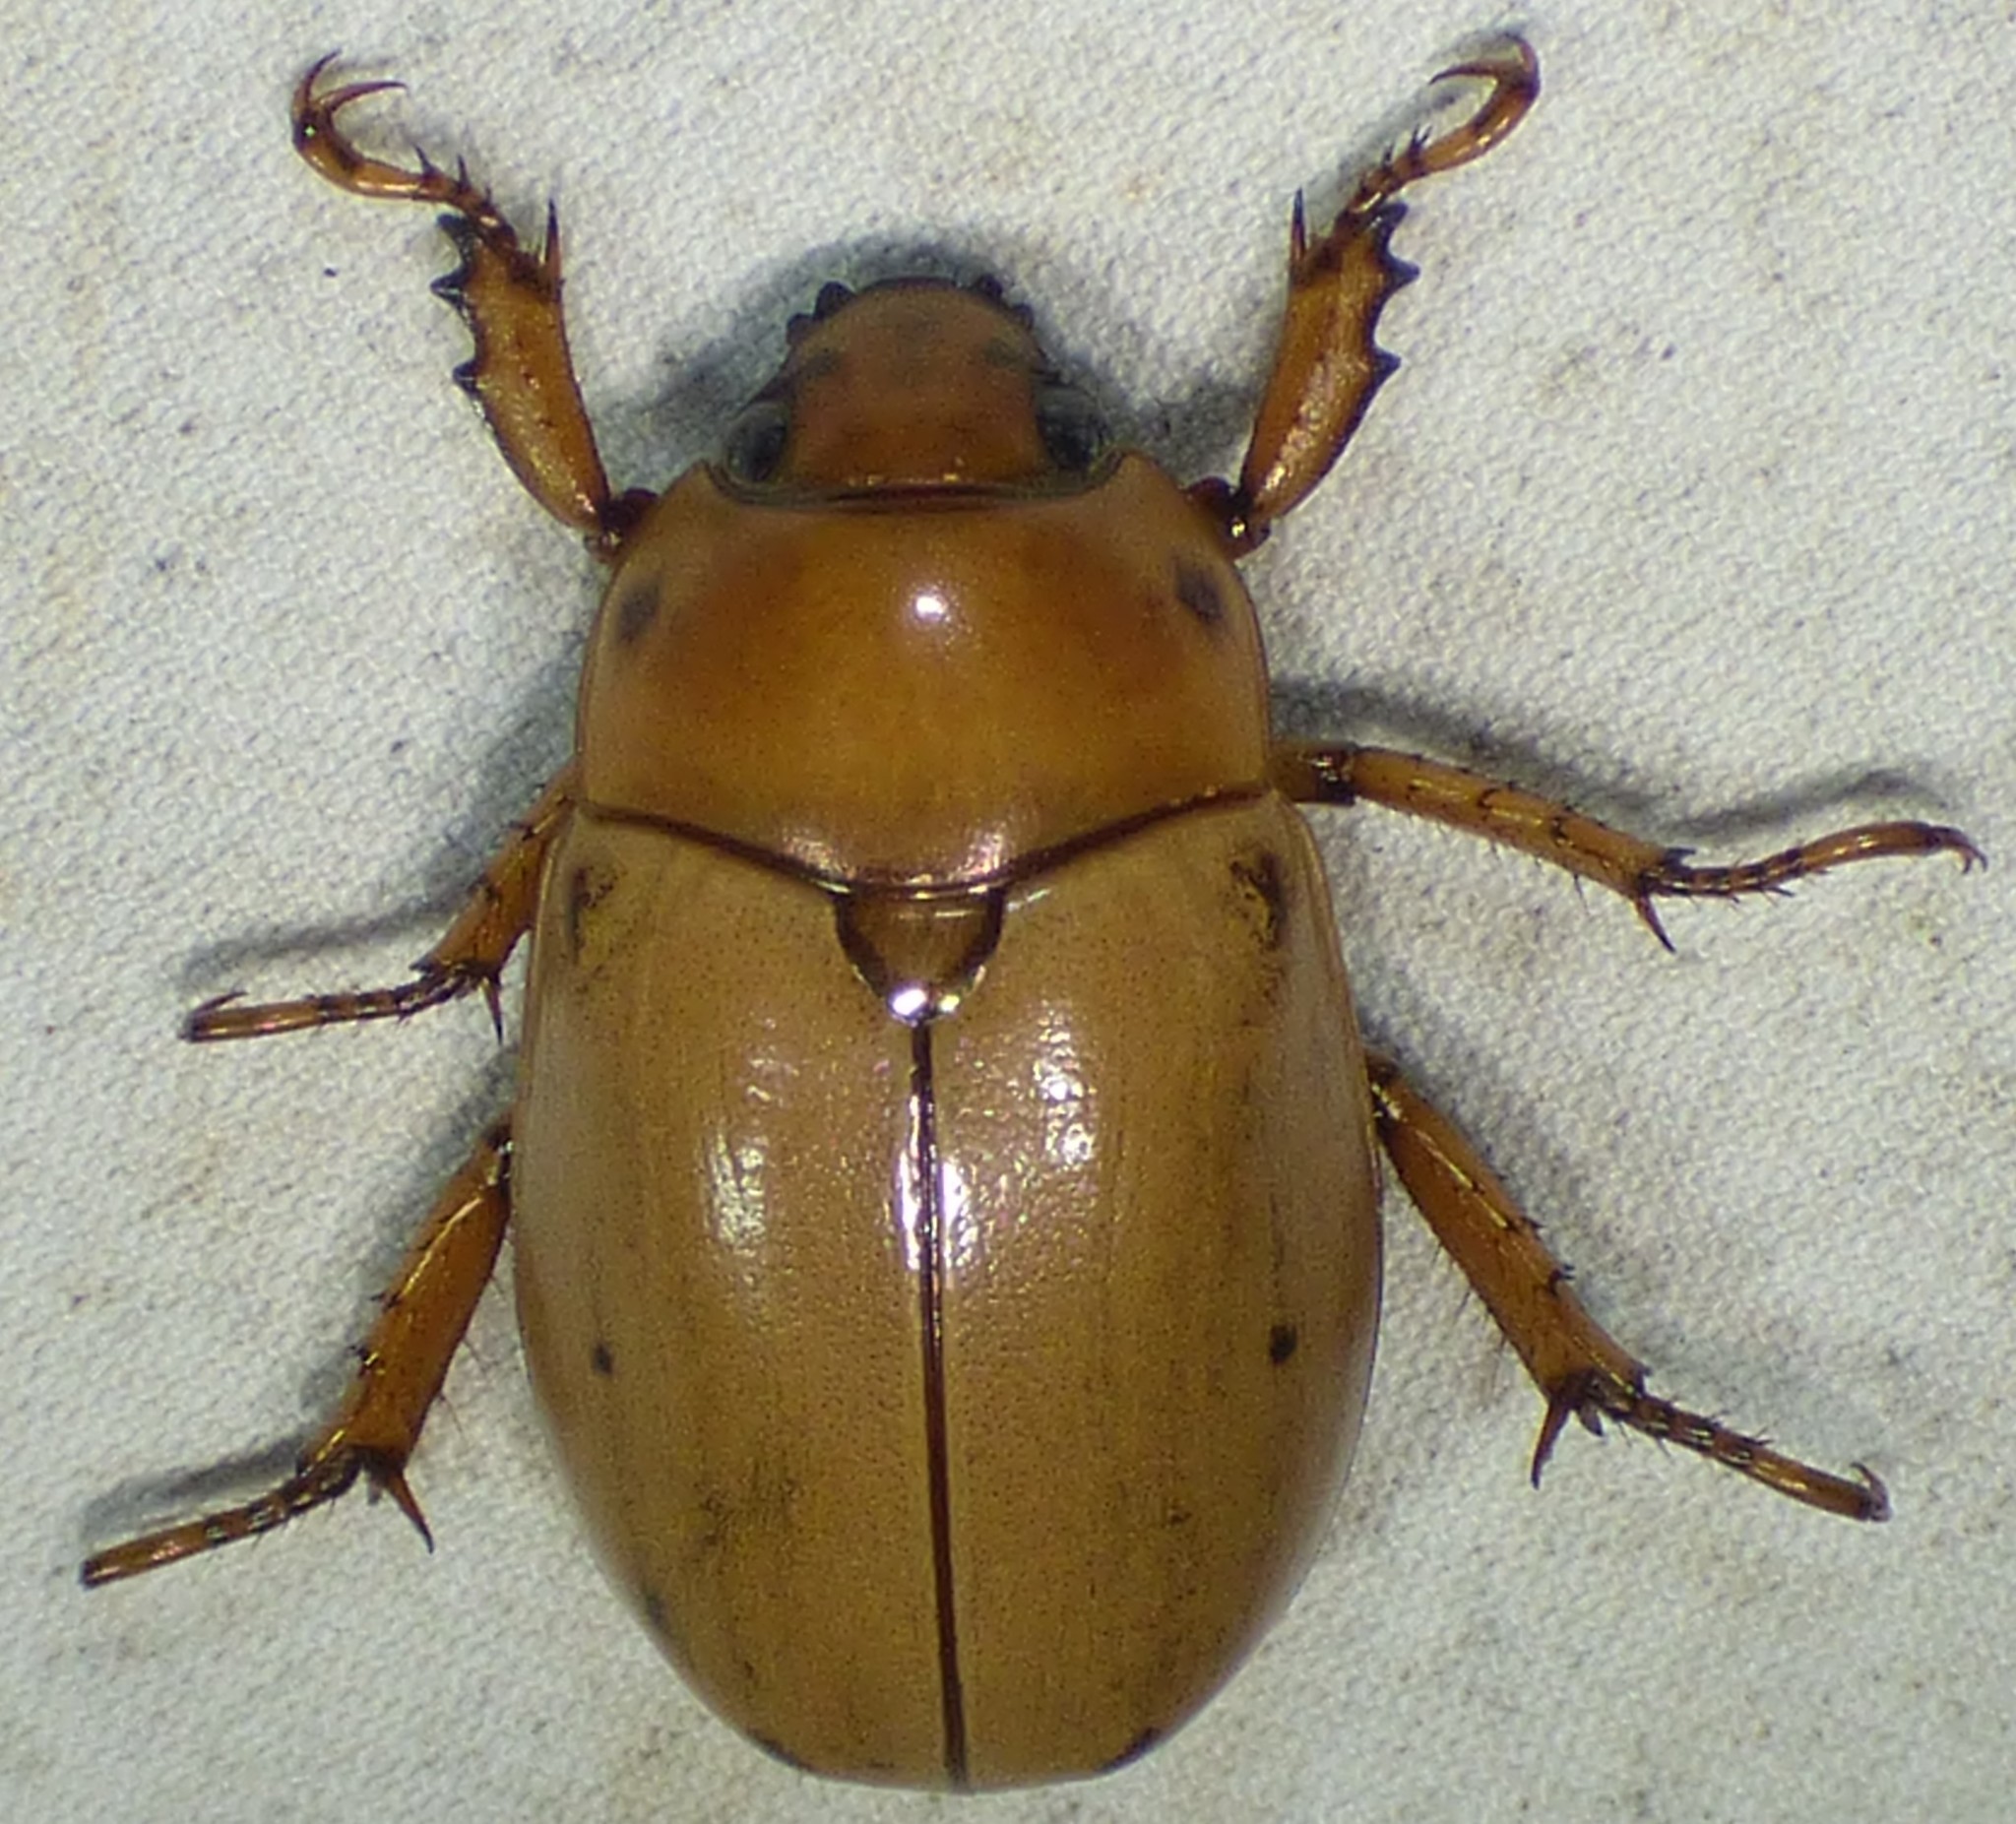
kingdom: Animalia
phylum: Arthropoda
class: Insecta
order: Coleoptera
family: Scarabaeidae
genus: Pelidnota
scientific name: Pelidnota punctata
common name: Grapevine beetle
